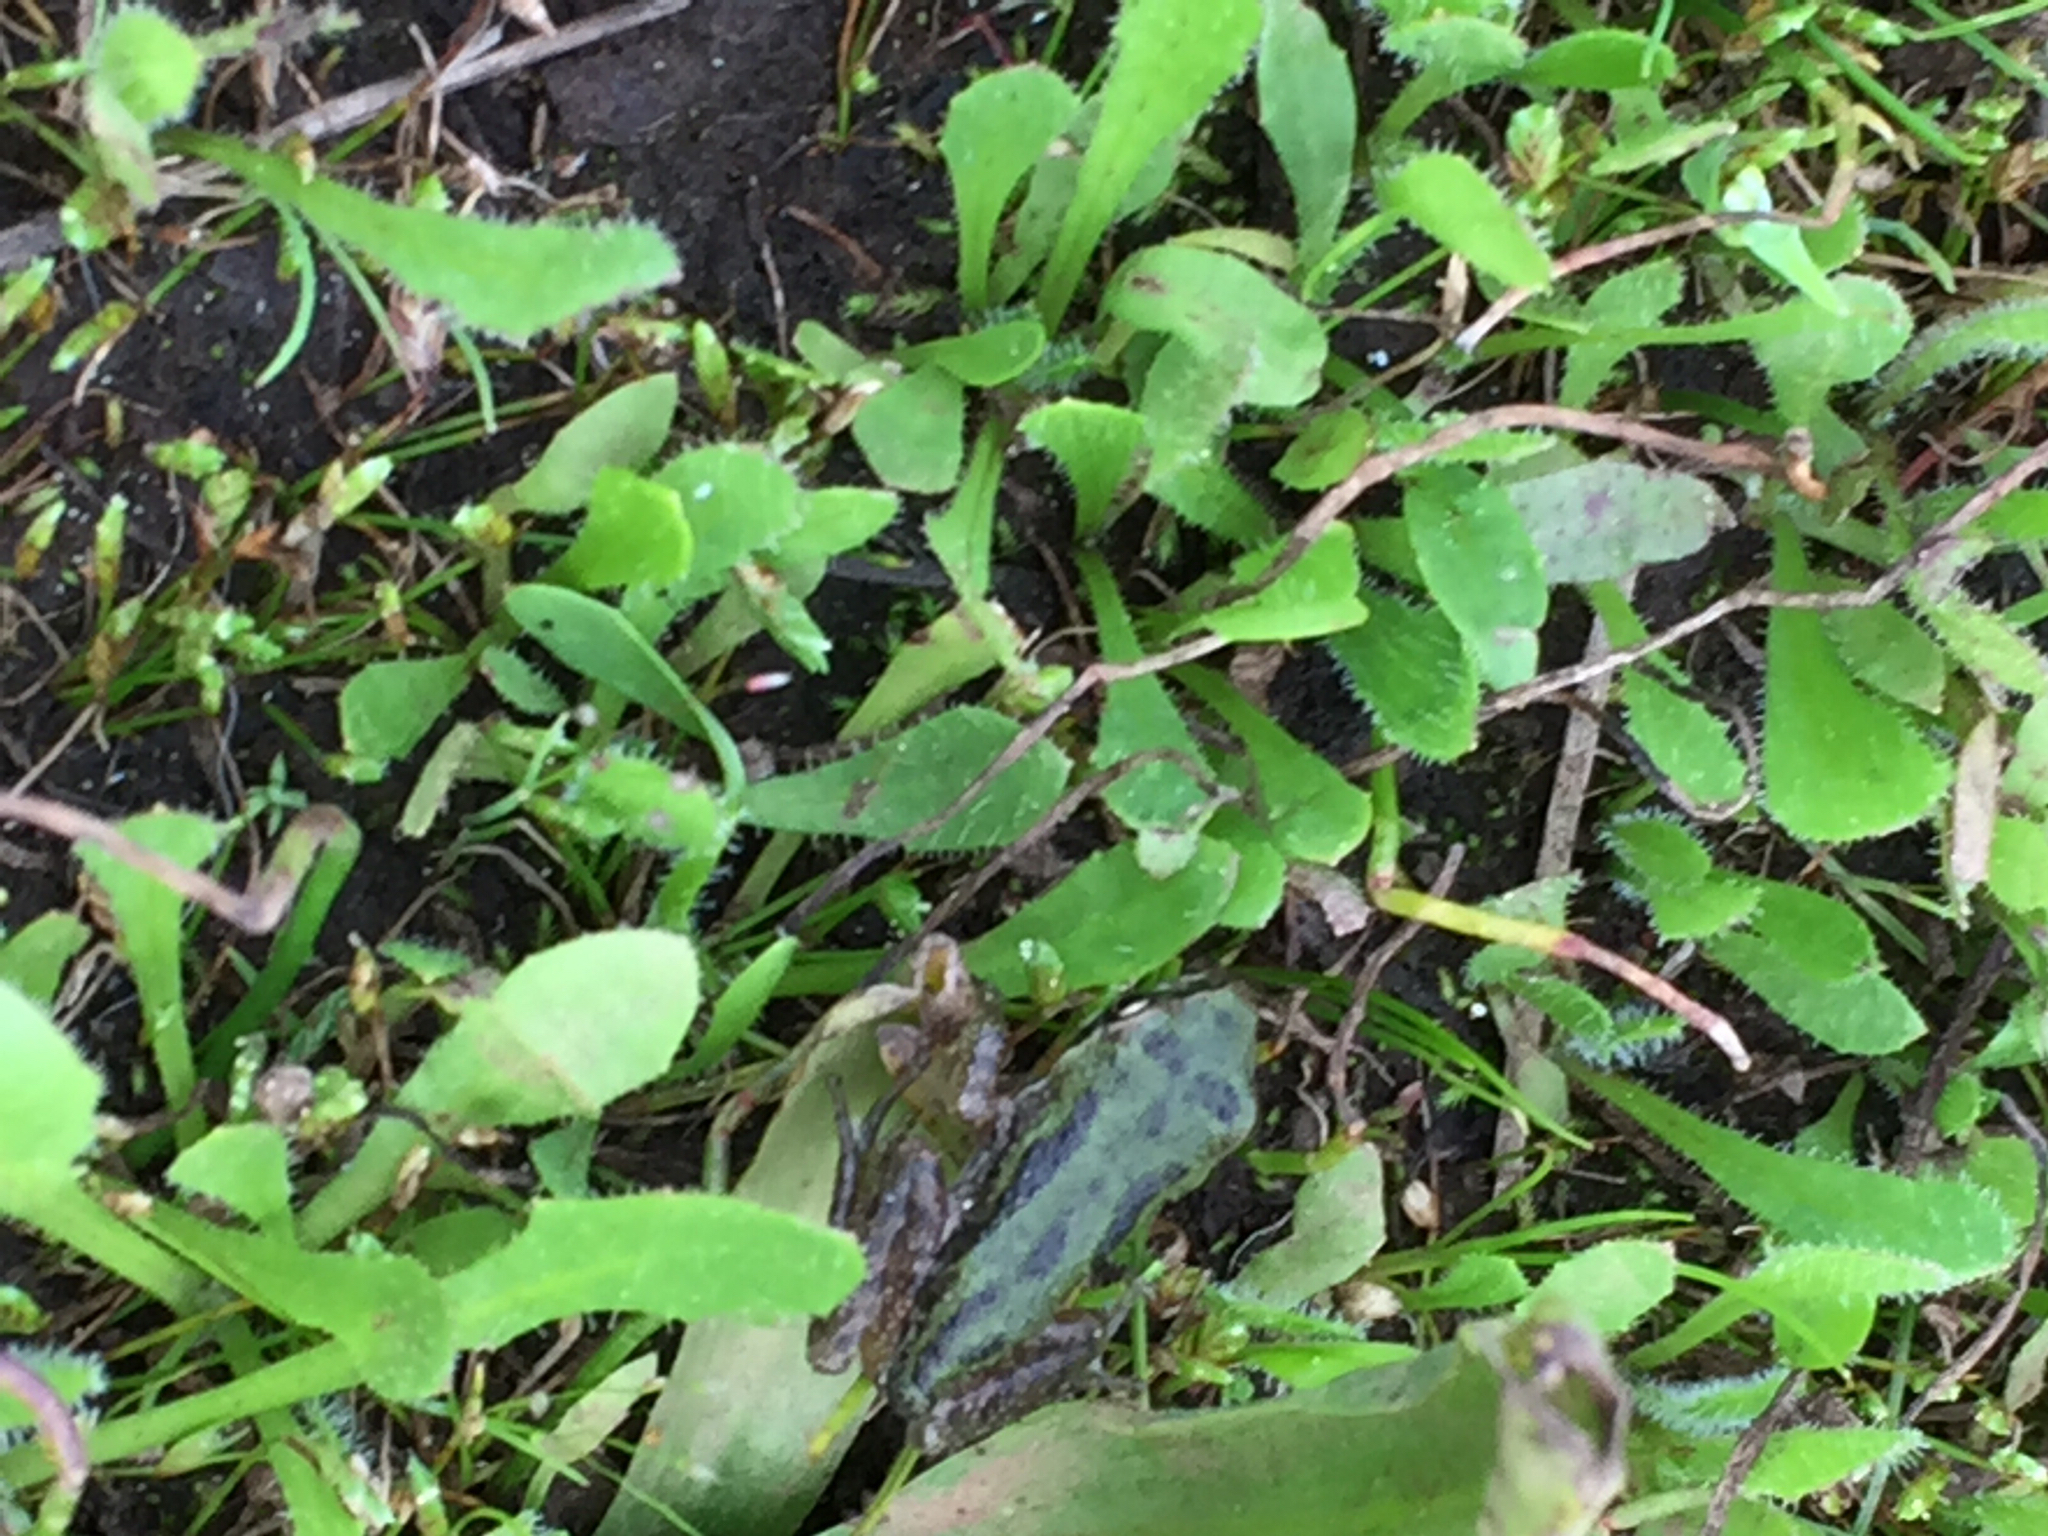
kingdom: Animalia
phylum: Chordata
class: Amphibia
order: Anura
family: Hylidae
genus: Pseudacris
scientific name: Pseudacris regilla
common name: Pacific chorus frog
